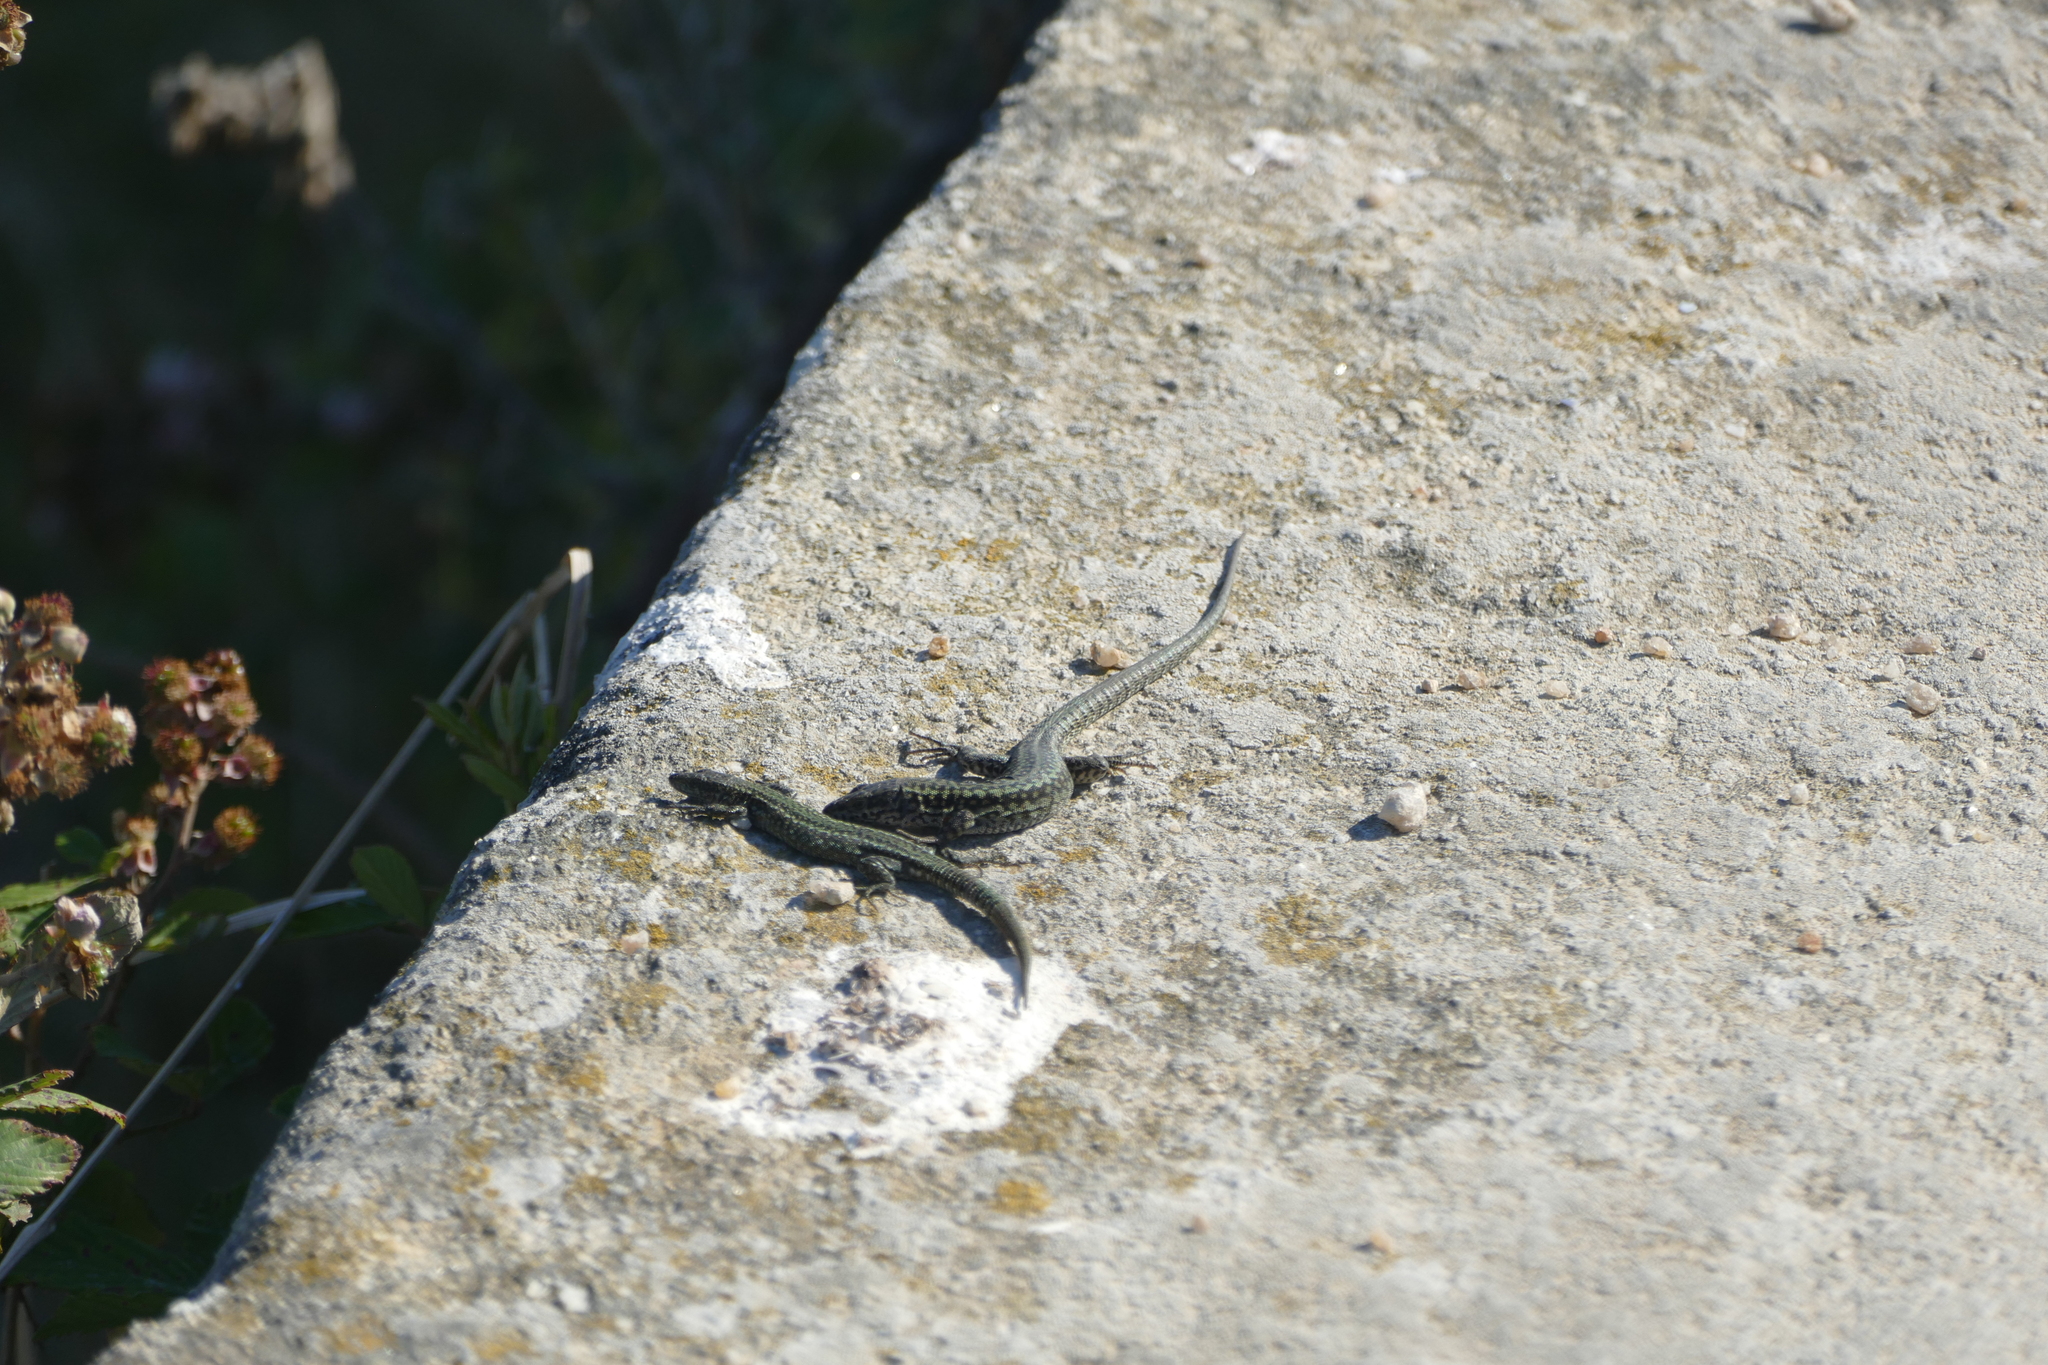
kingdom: Animalia
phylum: Chordata
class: Squamata
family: Lacertidae
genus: Podarcis
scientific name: Podarcis
